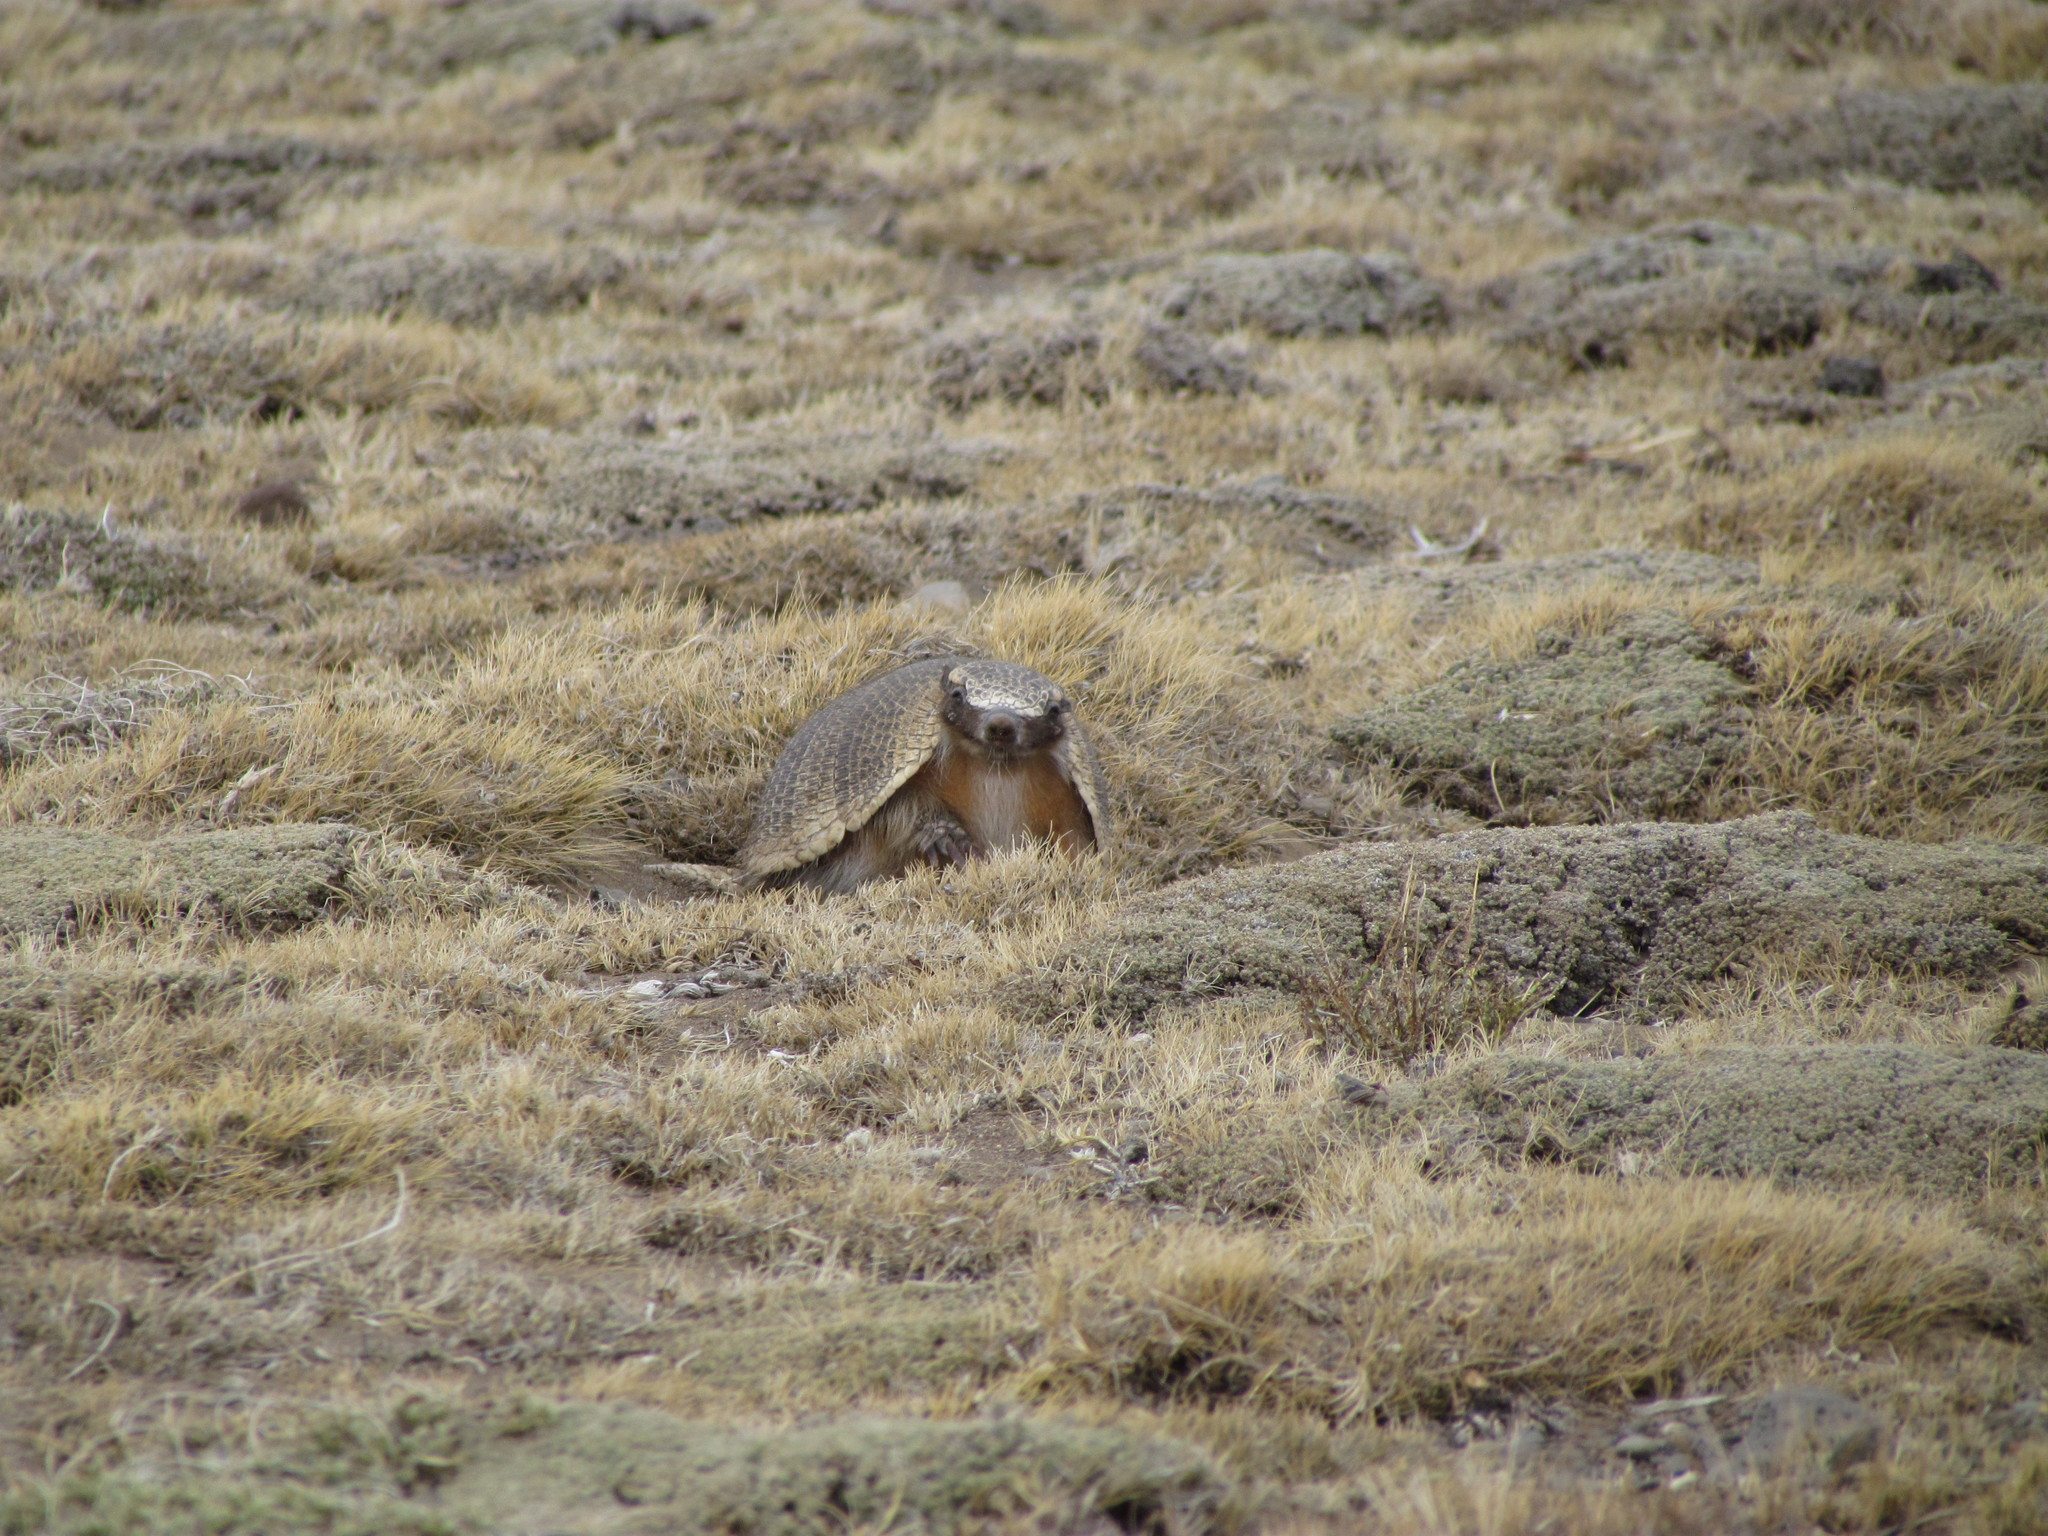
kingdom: Animalia
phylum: Chordata
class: Mammalia
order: Cingulata
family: Dasypodidae
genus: Zaedyus
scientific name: Zaedyus pichiy
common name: Pichi
